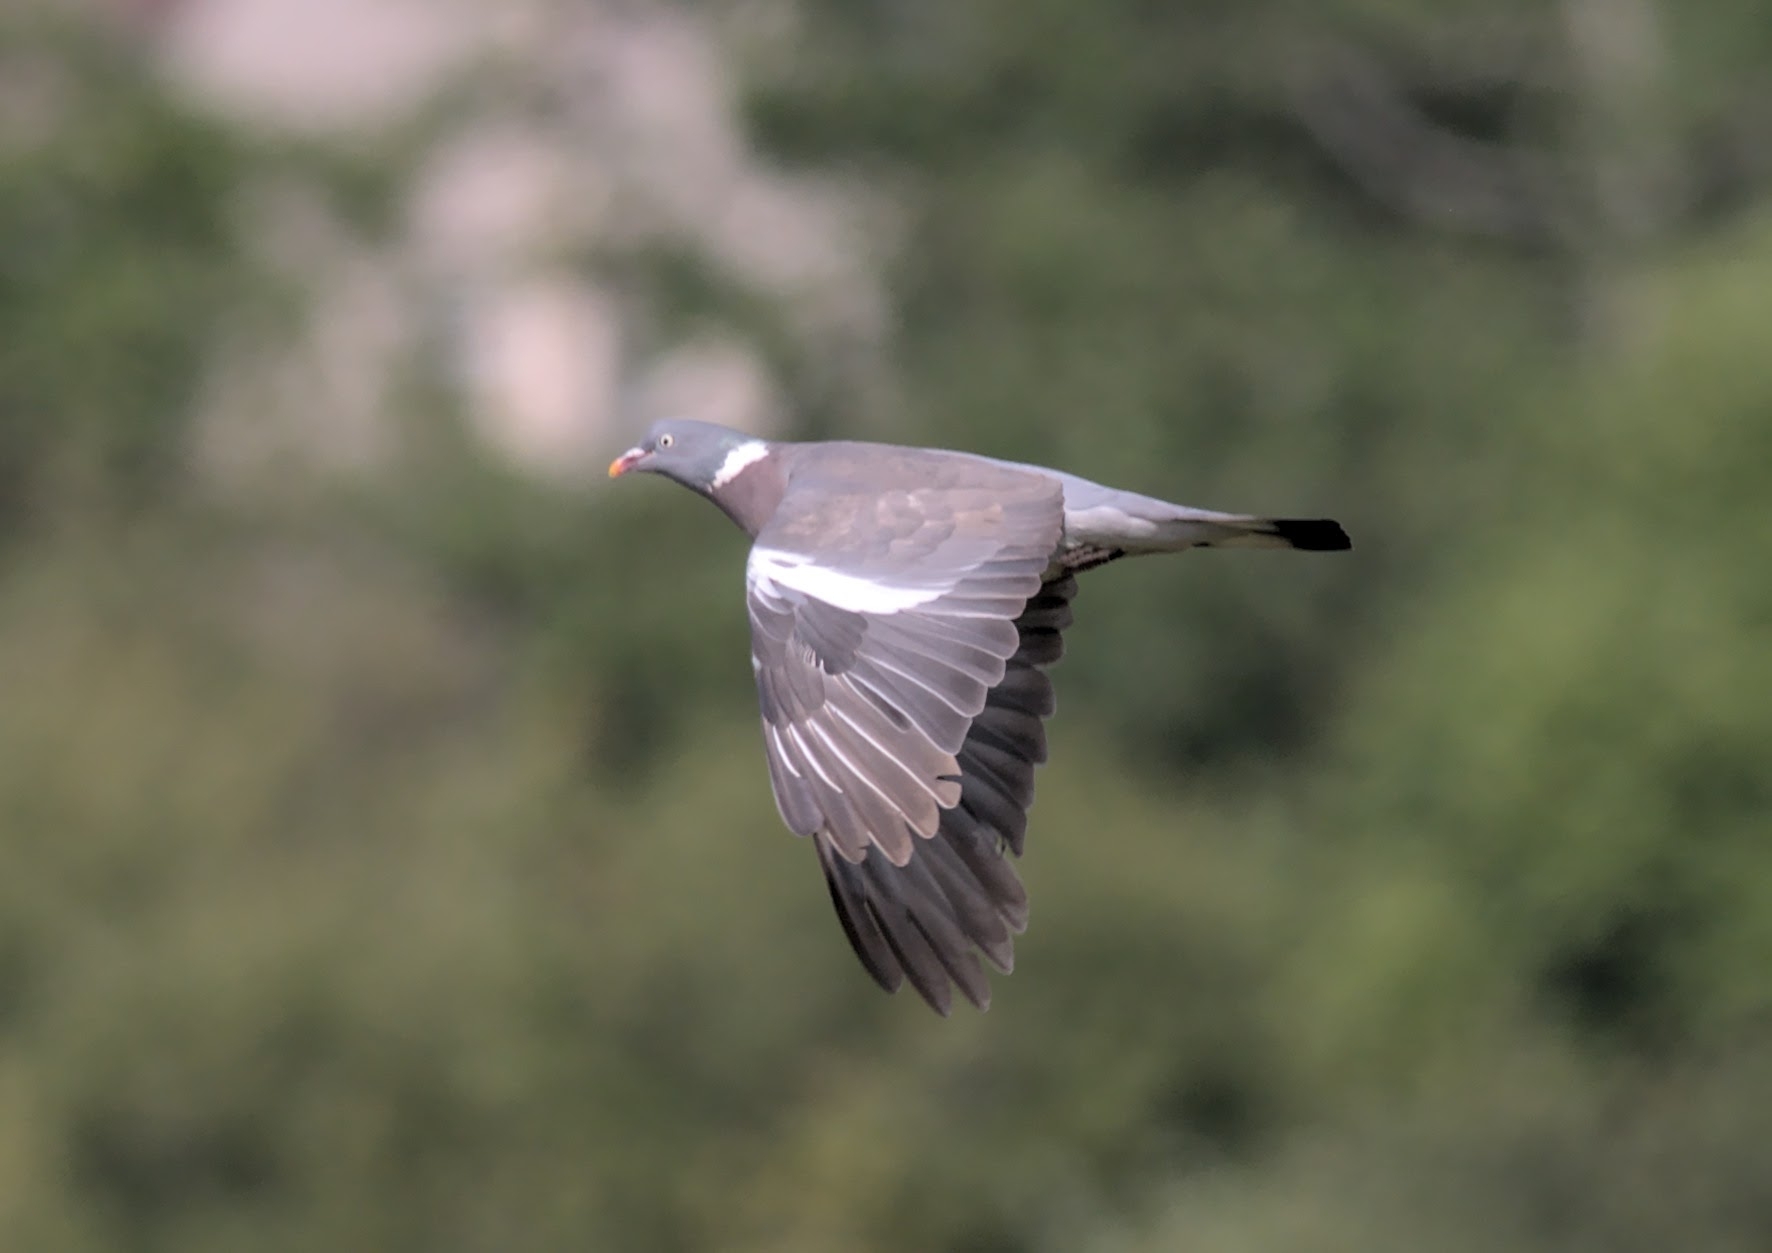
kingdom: Animalia
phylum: Chordata
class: Aves
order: Columbiformes
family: Columbidae
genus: Columba
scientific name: Columba palumbus
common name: Common wood pigeon
